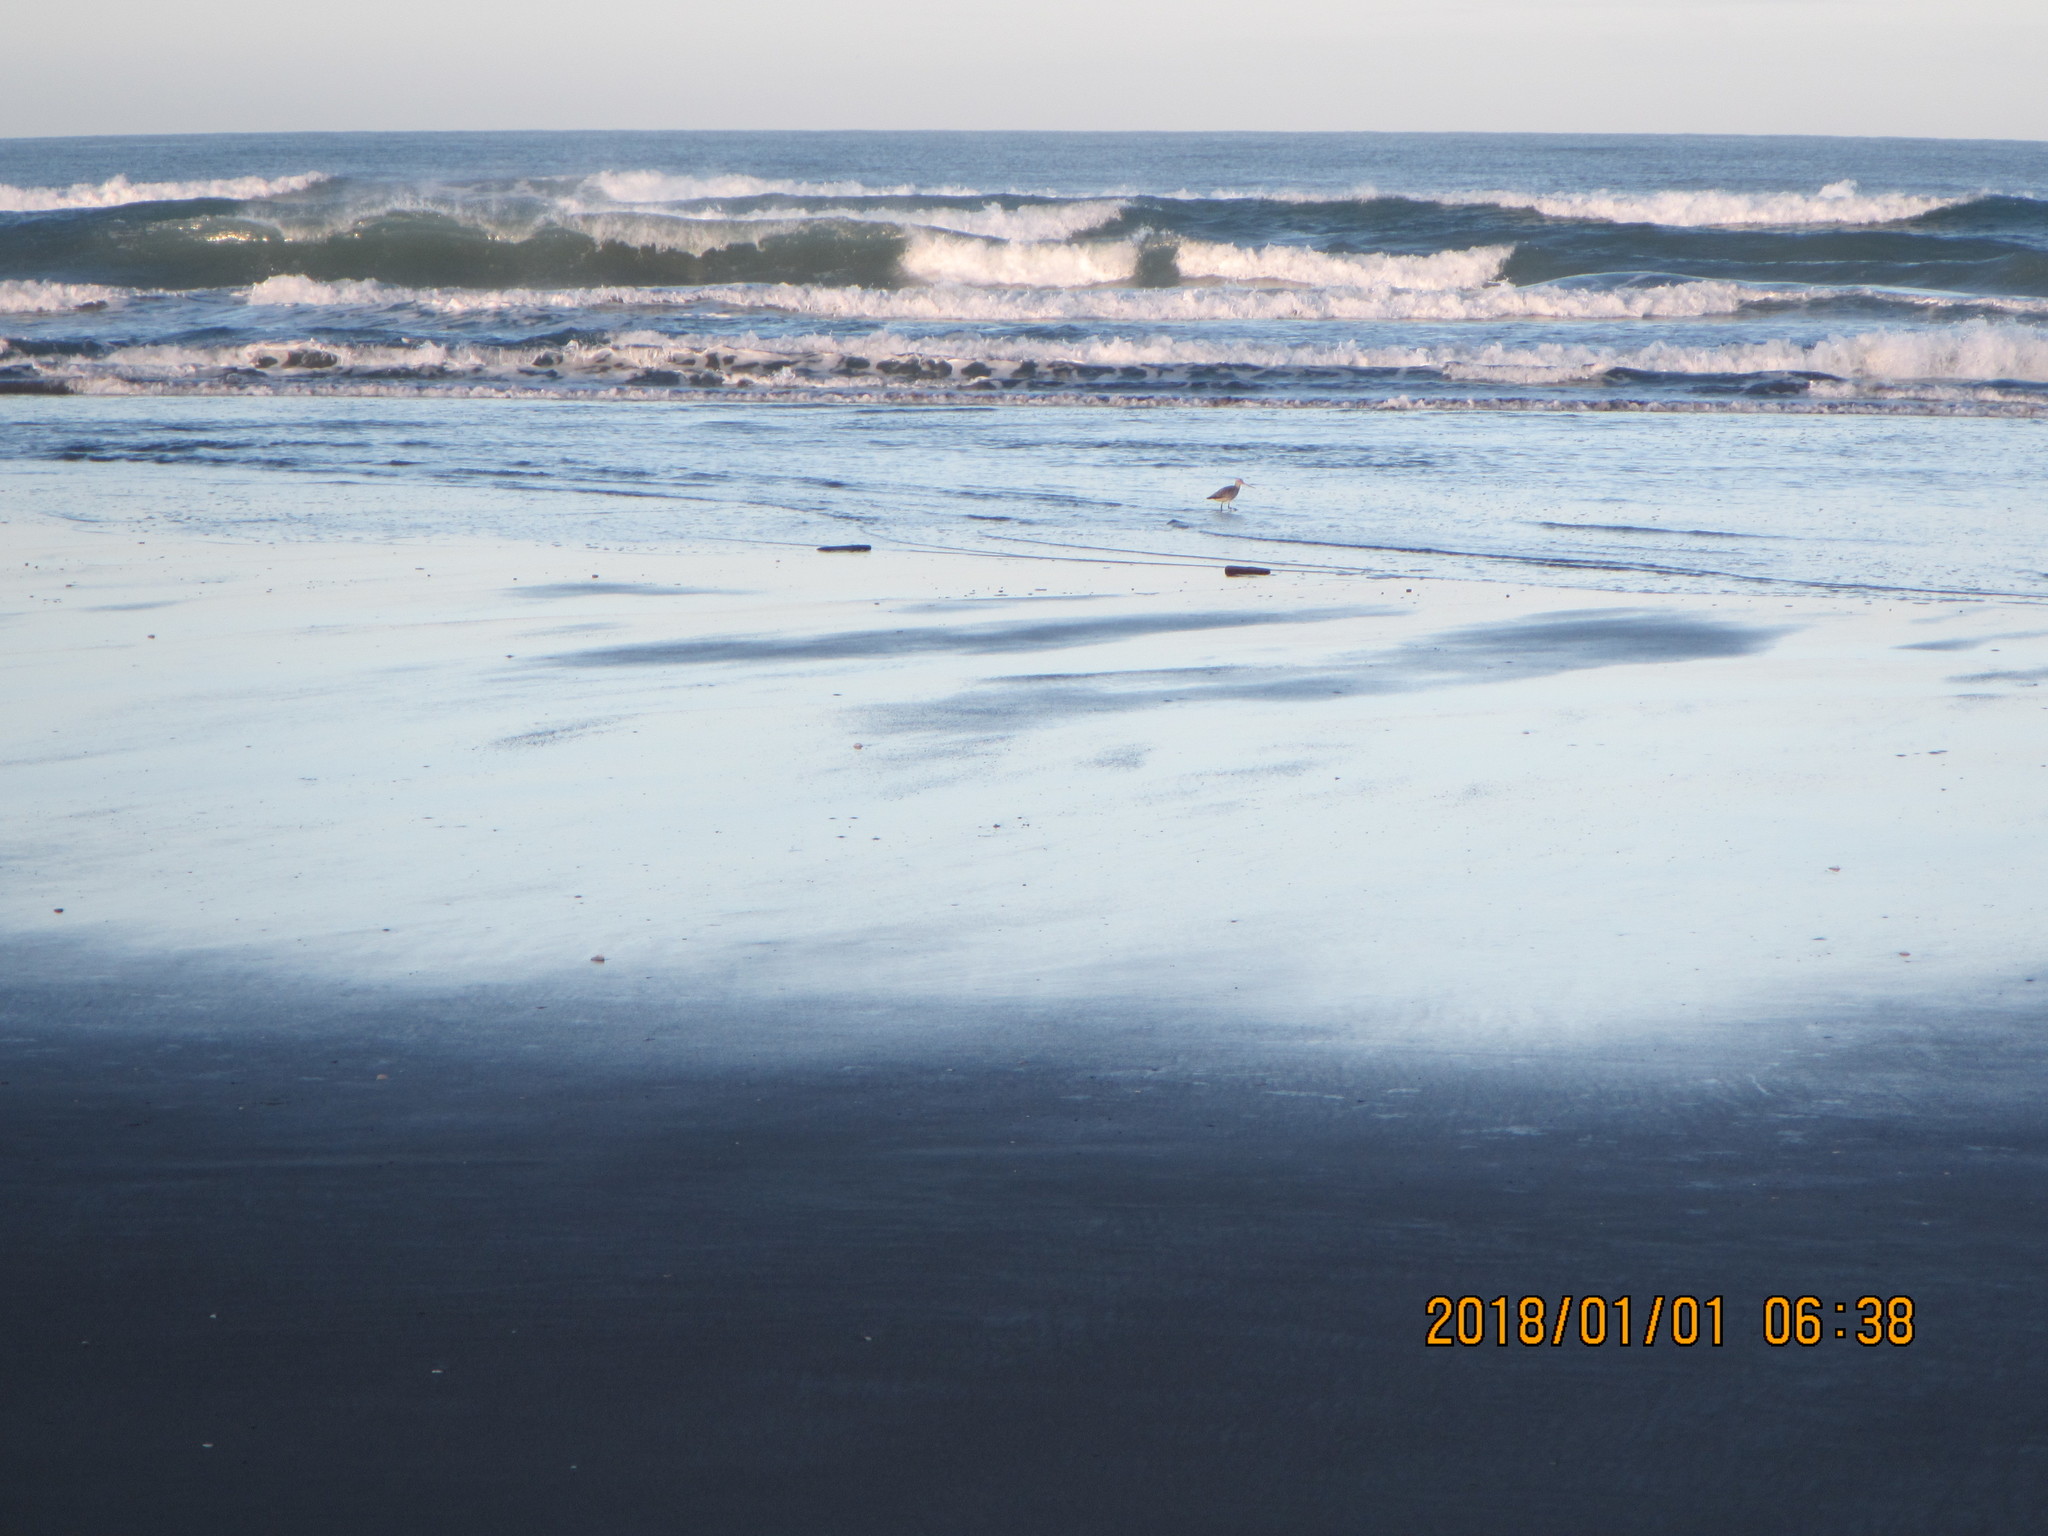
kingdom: Animalia
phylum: Chordata
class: Aves
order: Charadriiformes
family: Scolopacidae
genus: Limosa
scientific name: Limosa lapponica
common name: Bar-tailed godwit
